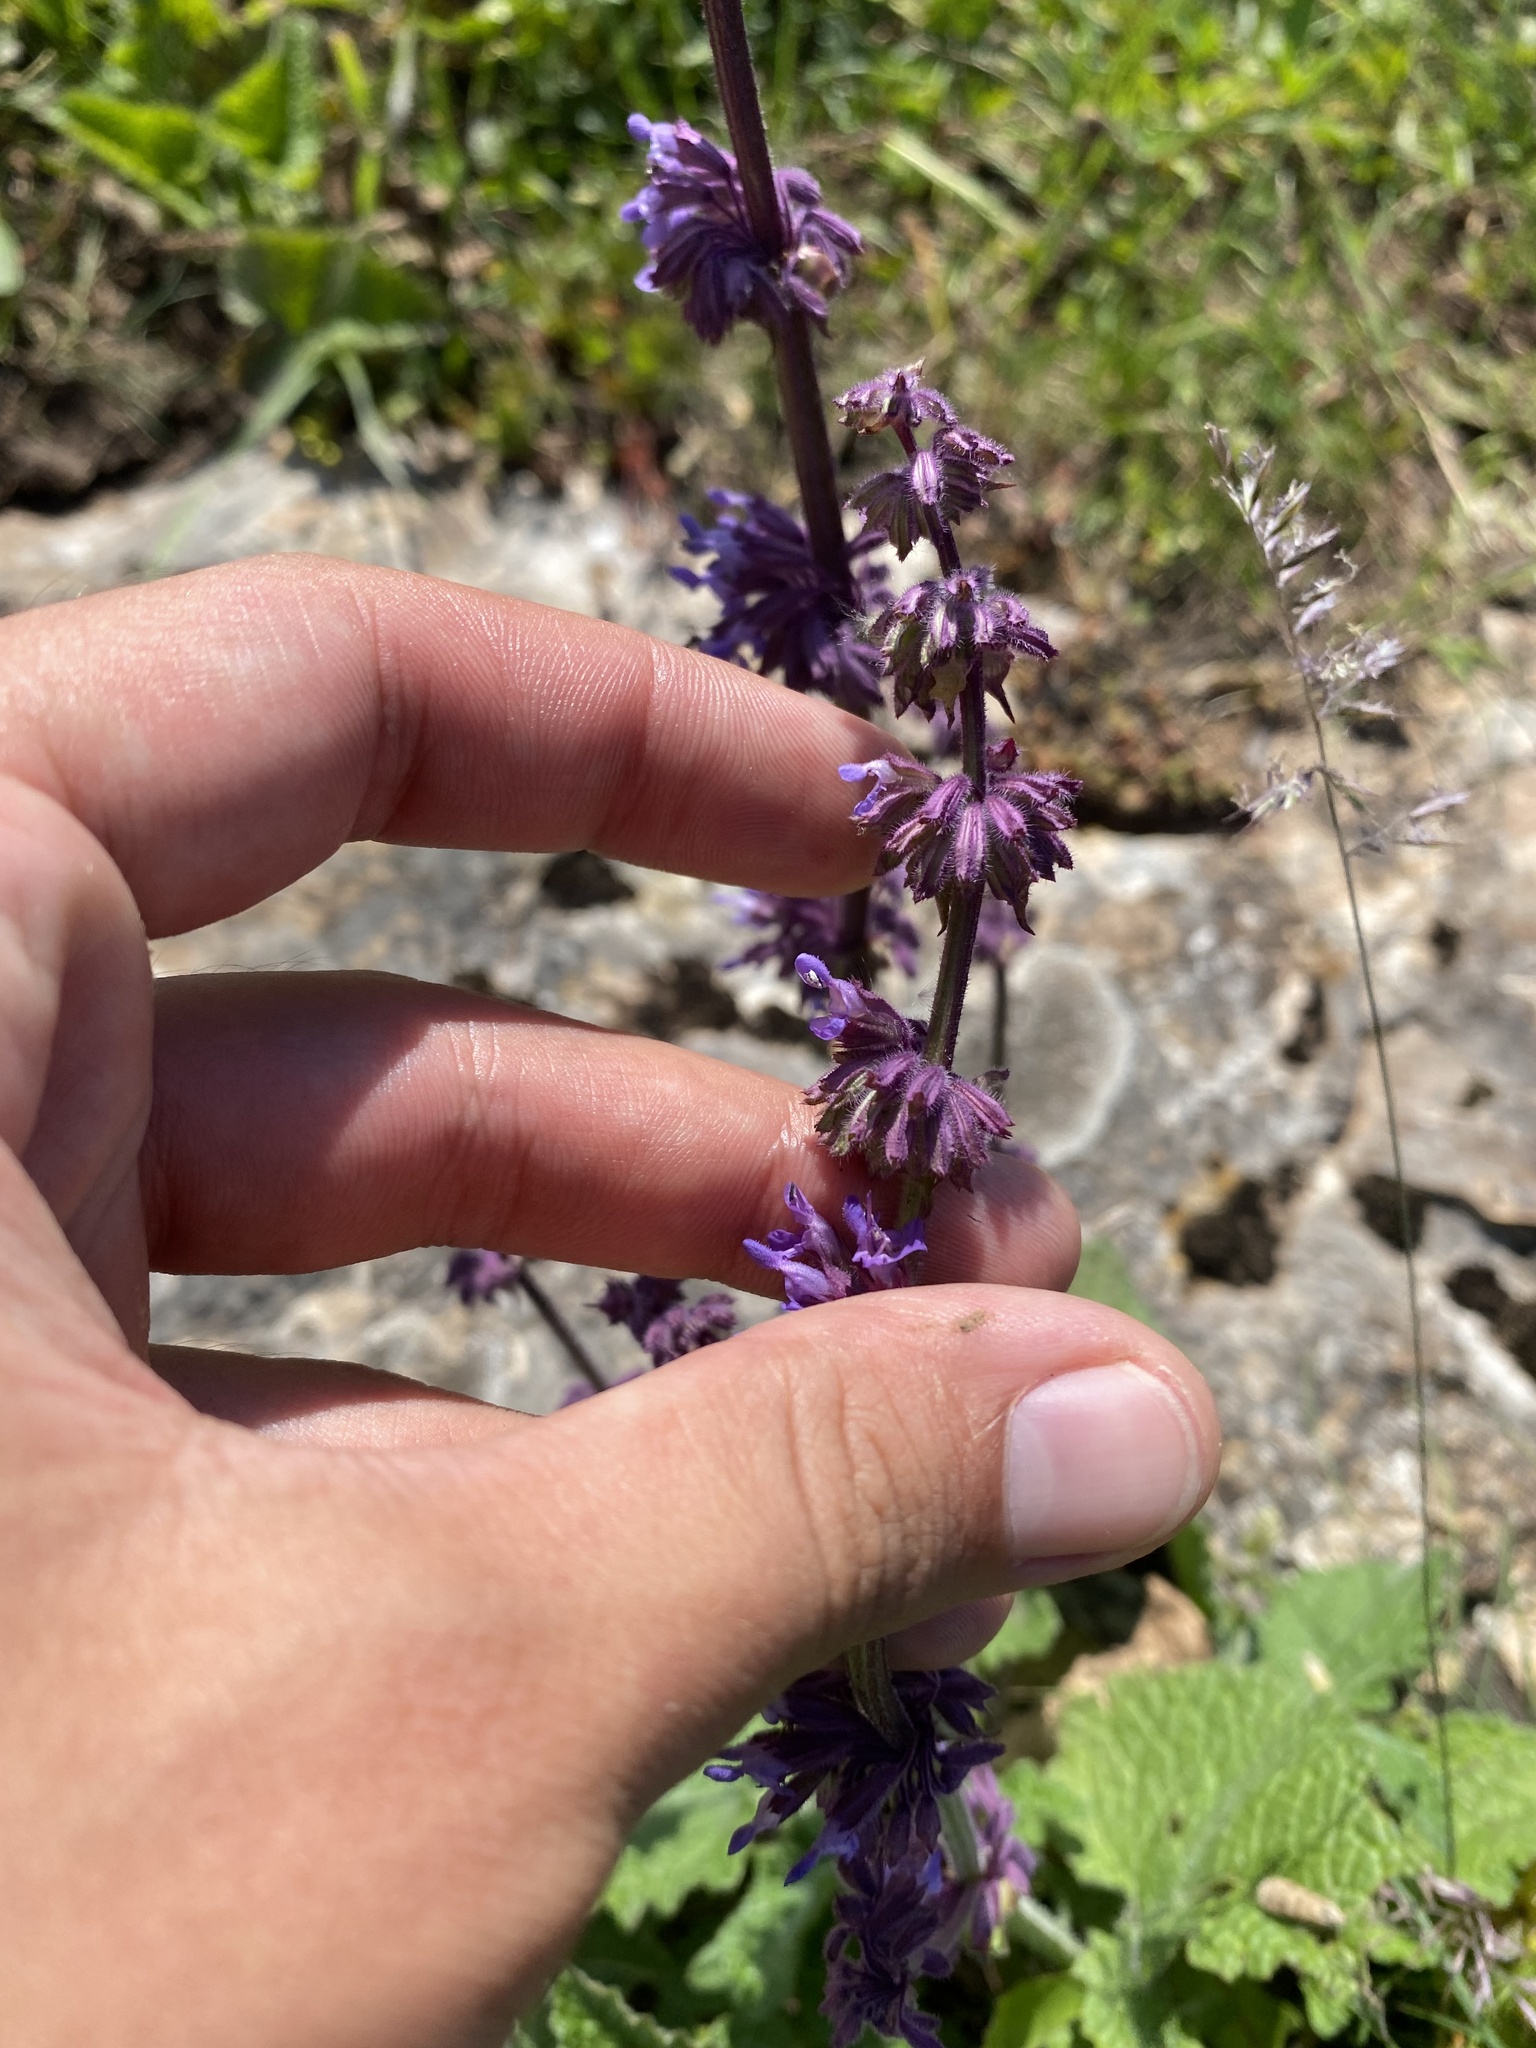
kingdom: Plantae
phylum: Tracheophyta
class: Magnoliopsida
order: Lamiales
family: Lamiaceae
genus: Salvia
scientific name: Salvia verticillata
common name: Whorled clary
